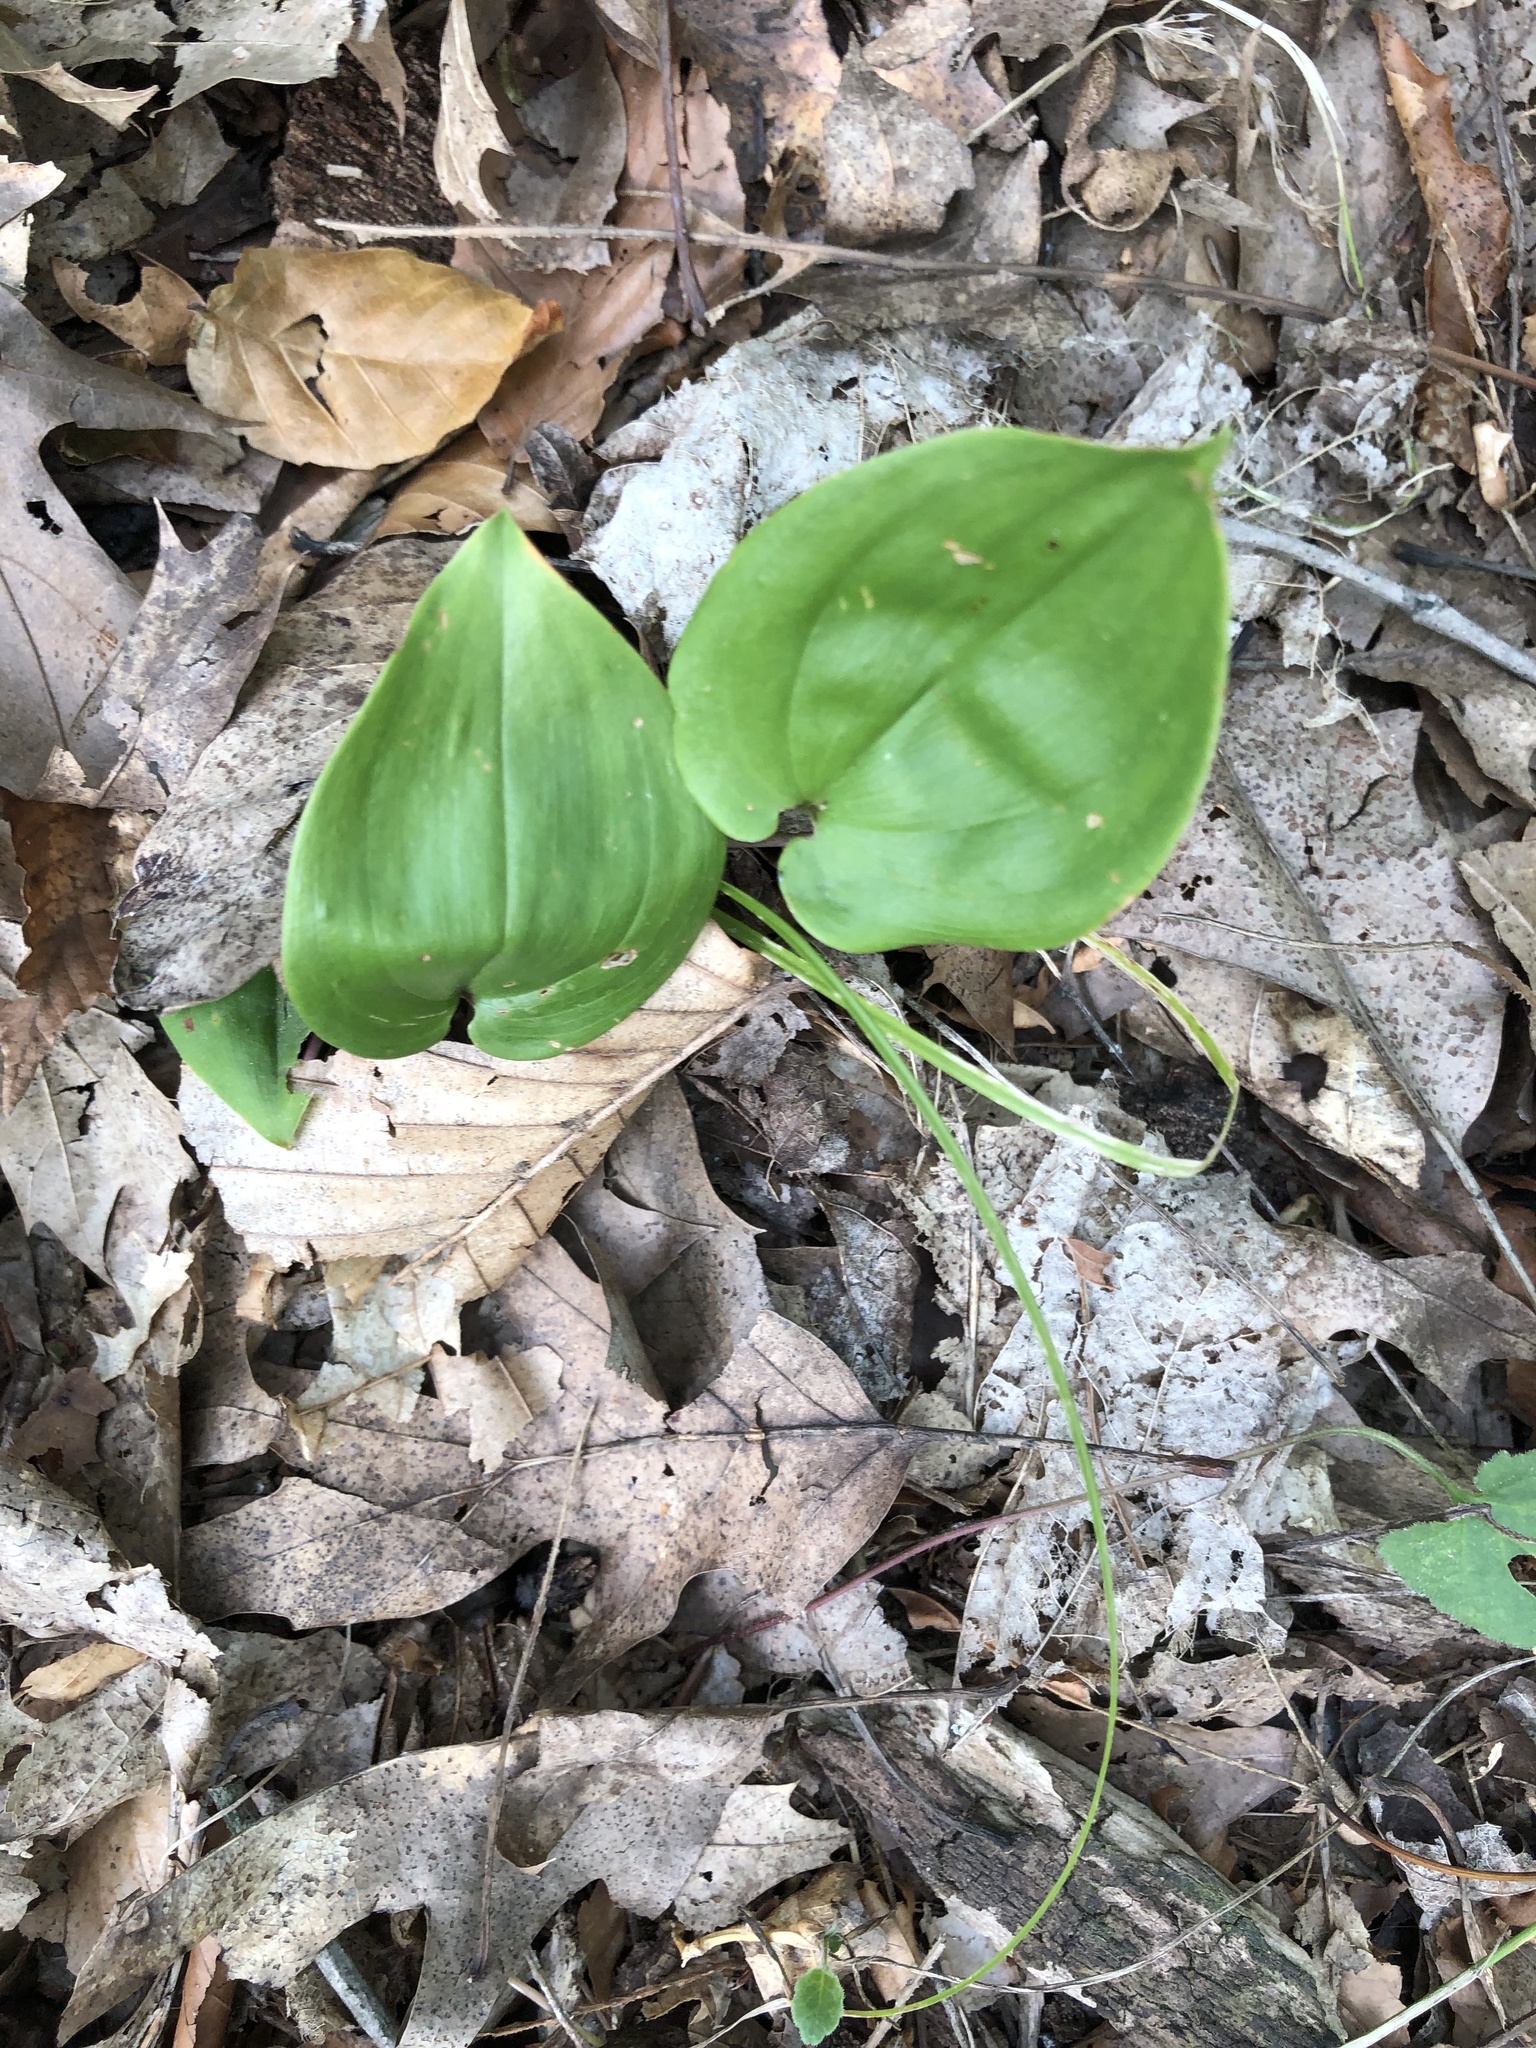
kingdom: Plantae
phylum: Tracheophyta
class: Liliopsida
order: Asparagales
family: Asparagaceae
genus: Maianthemum
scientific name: Maianthemum canadense
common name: False lily-of-the-valley
